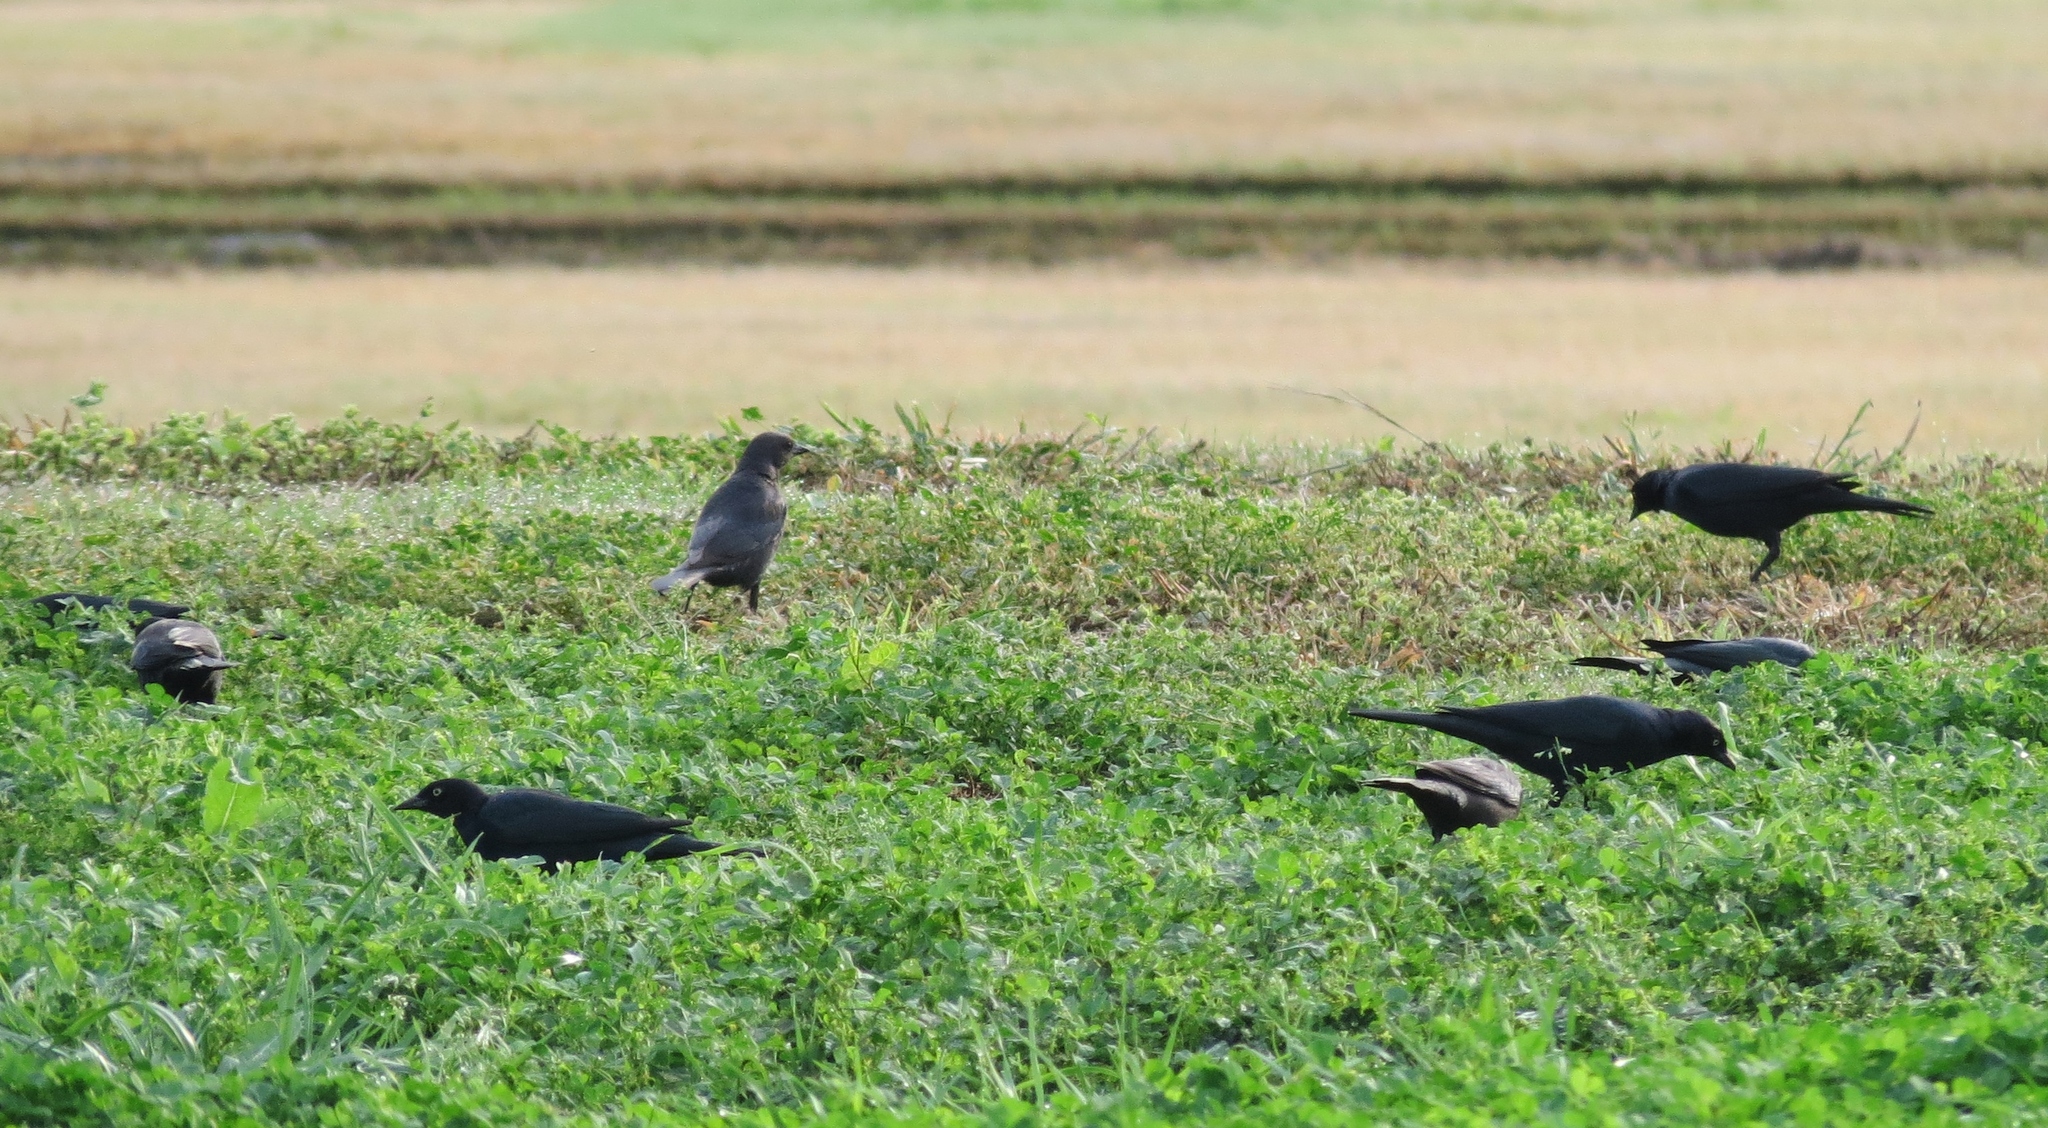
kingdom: Animalia
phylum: Chordata
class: Aves
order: Passeriformes
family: Icteridae
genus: Euphagus
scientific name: Euphagus cyanocephalus
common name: Brewer's blackbird
